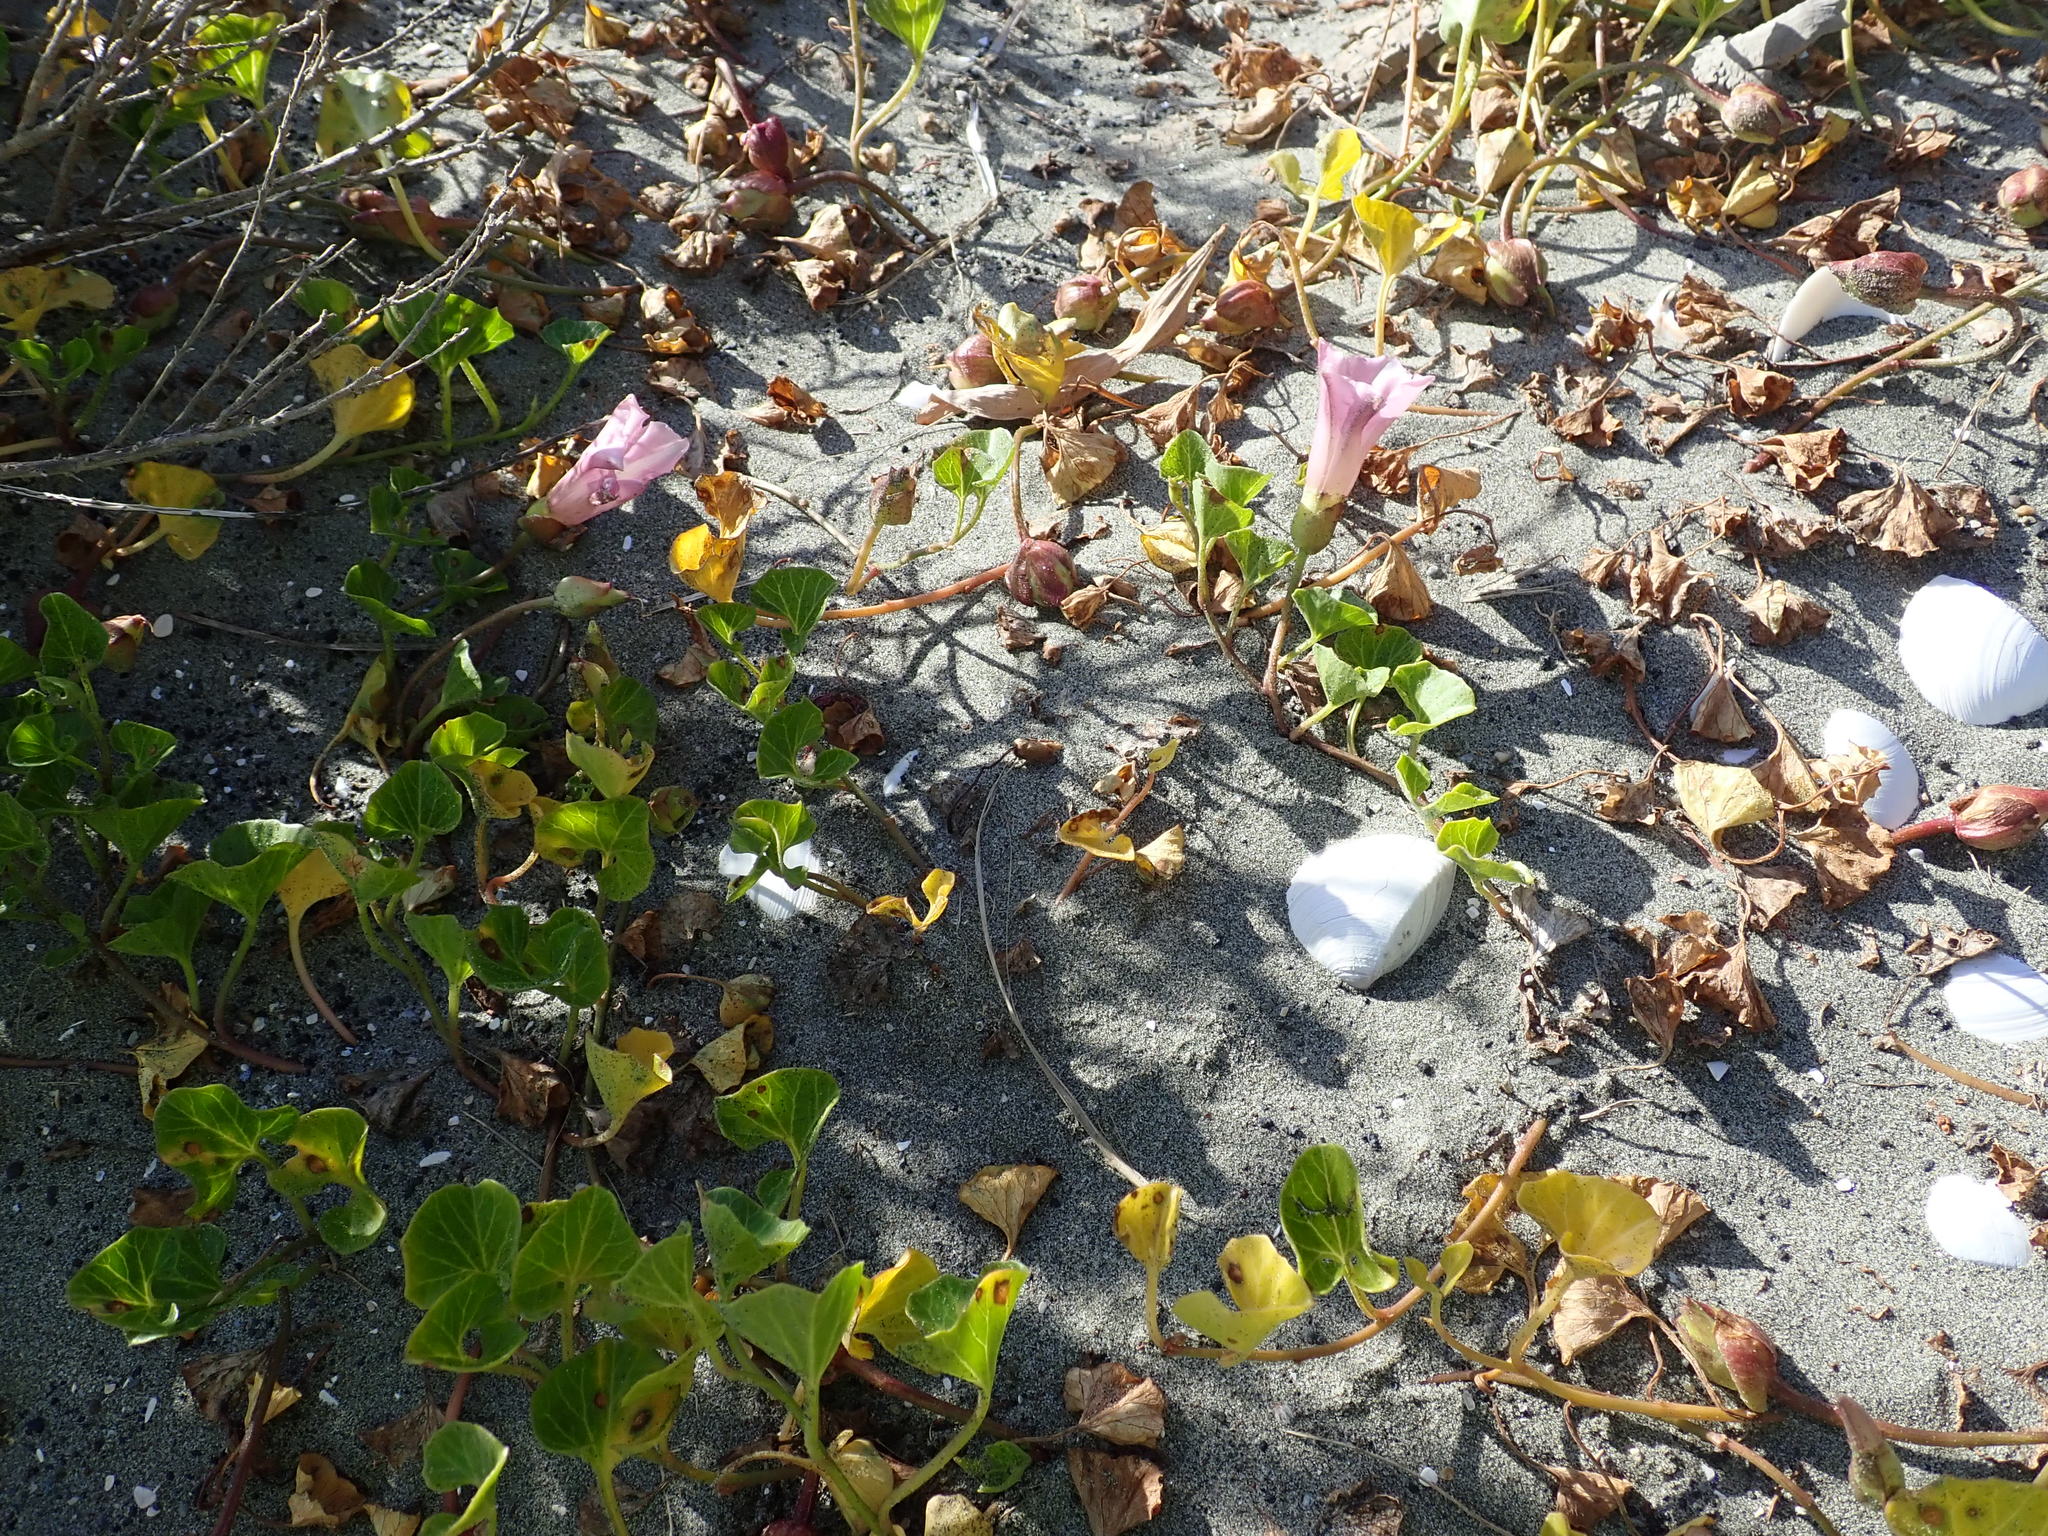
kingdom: Plantae
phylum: Tracheophyta
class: Magnoliopsida
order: Solanales
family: Convolvulaceae
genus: Calystegia
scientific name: Calystegia soldanella
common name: Sea bindweed
